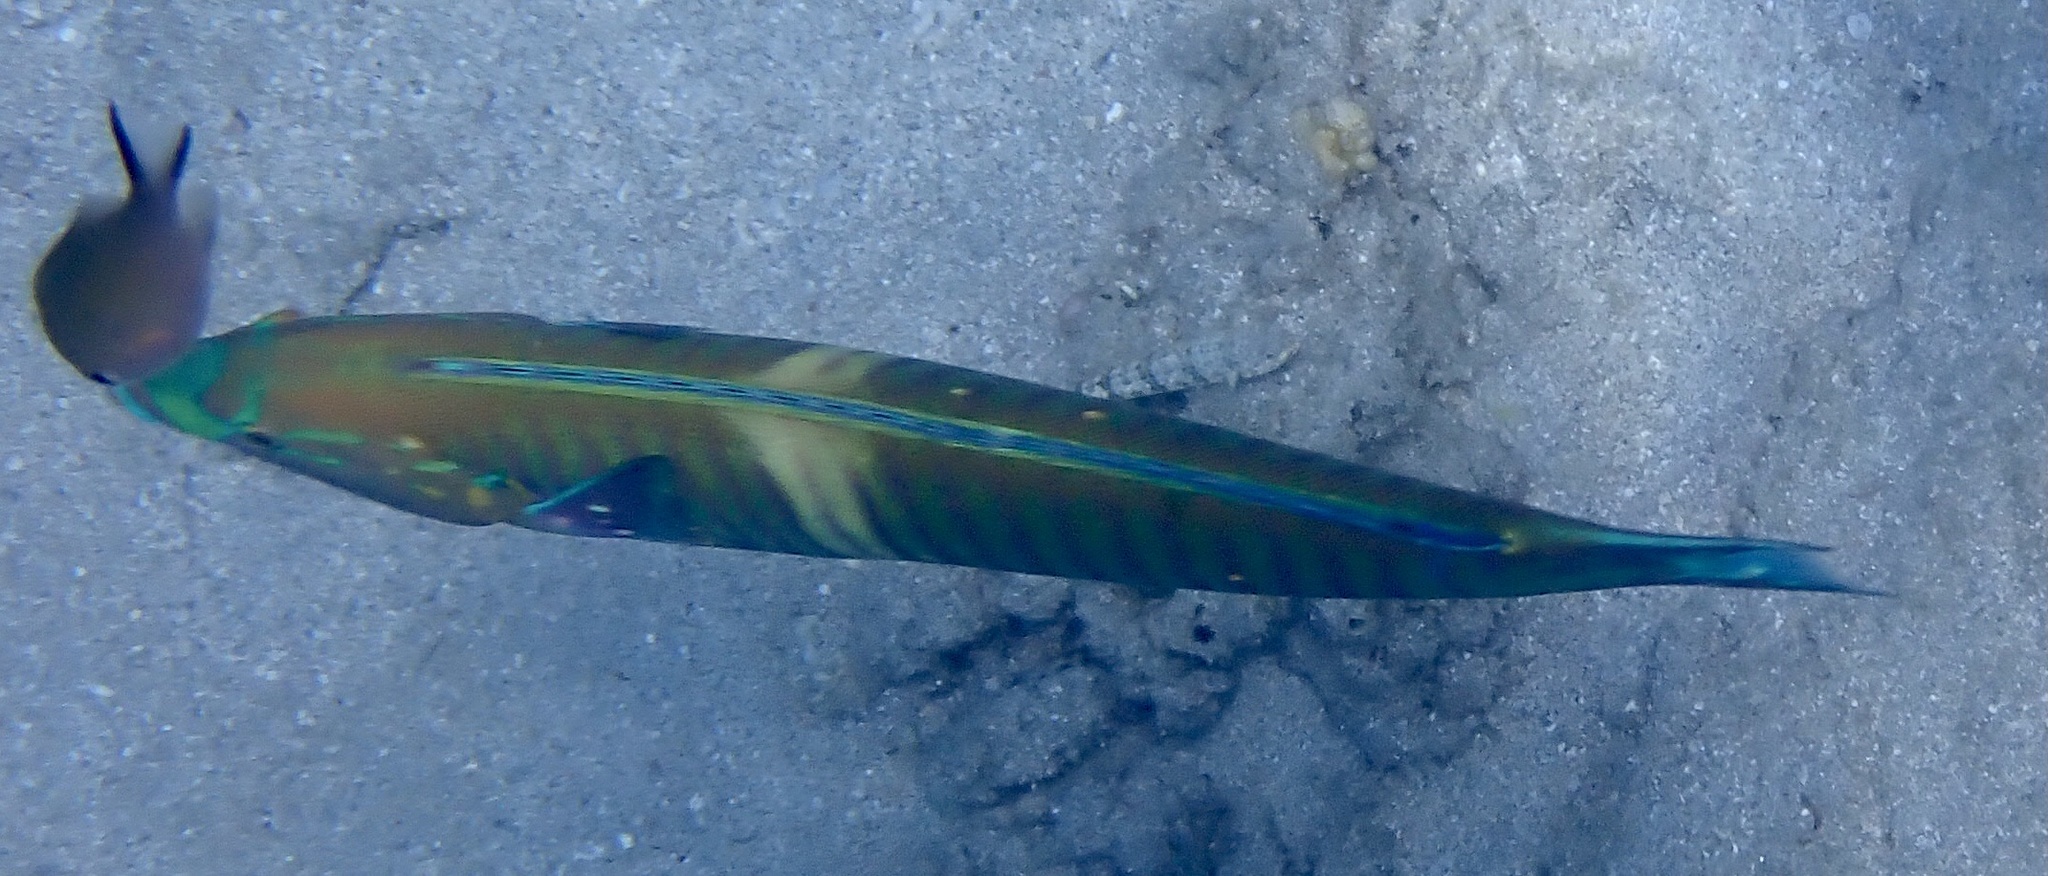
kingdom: Animalia
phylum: Chordata
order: Perciformes
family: Labridae
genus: Hologymnosus
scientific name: Hologymnosus annulatus
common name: Ring wrasse
